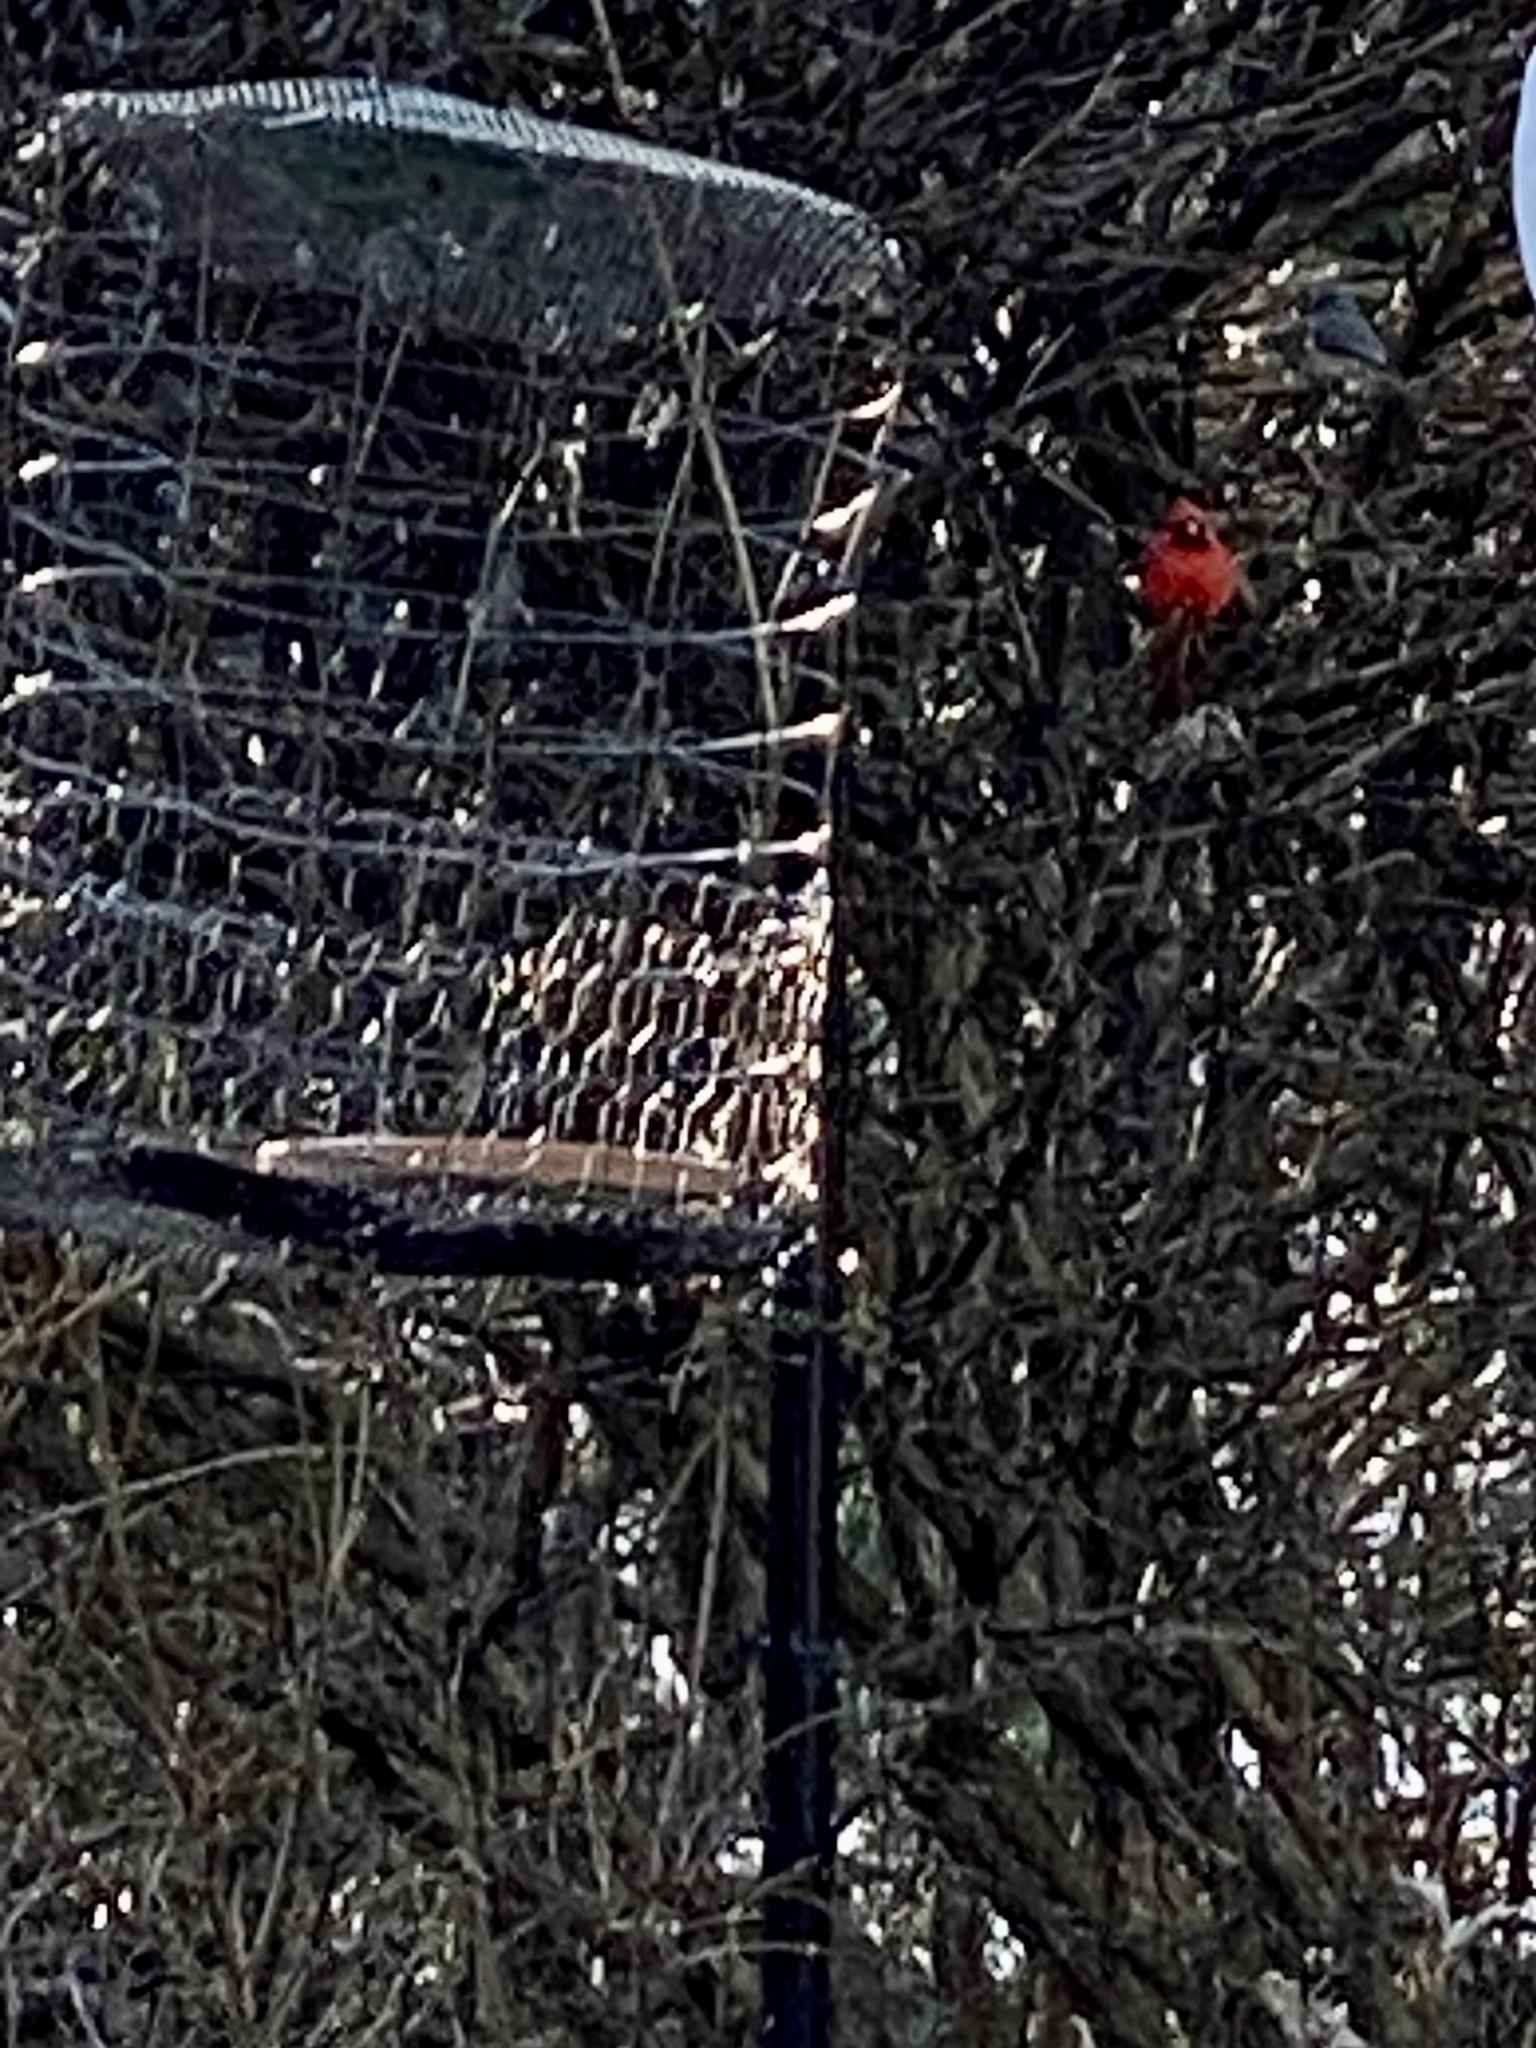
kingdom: Animalia
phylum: Chordata
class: Aves
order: Passeriformes
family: Cardinalidae
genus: Cardinalis
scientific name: Cardinalis cardinalis
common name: Northern cardinal
